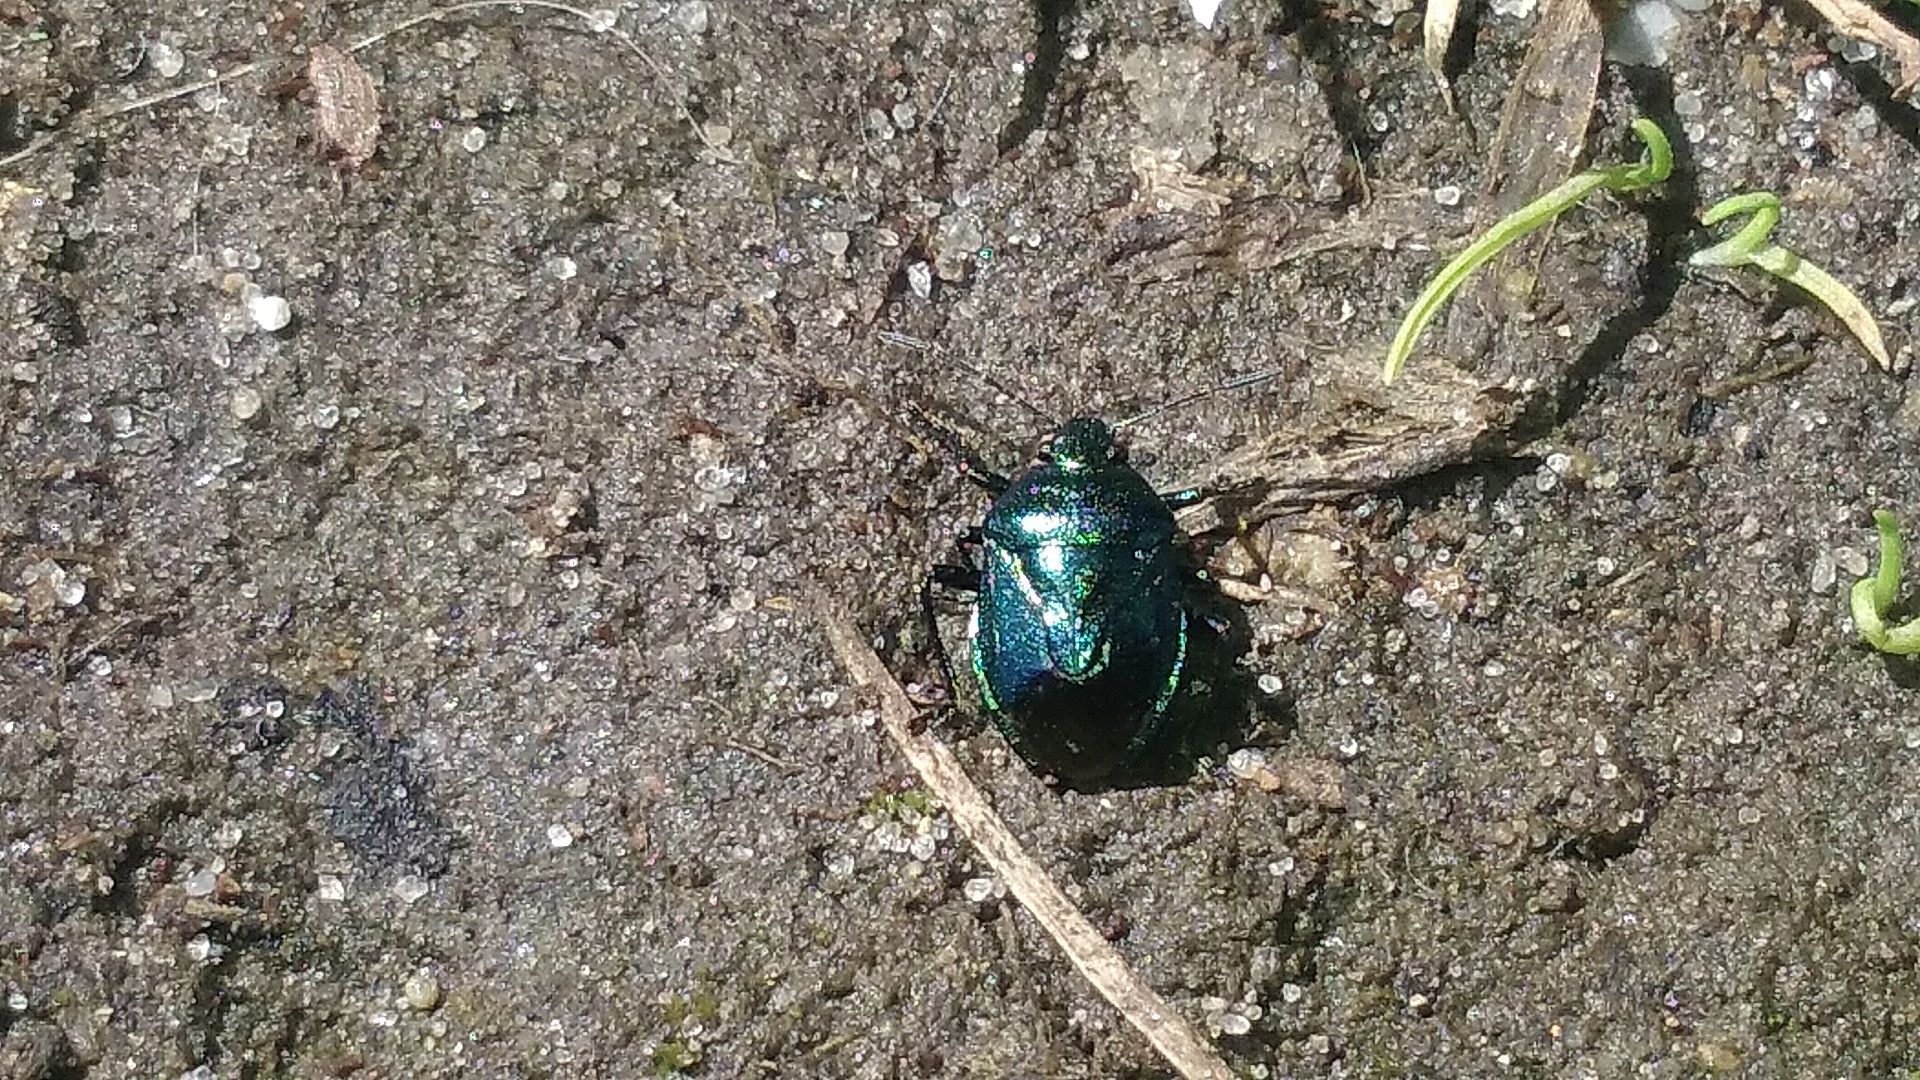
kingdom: Animalia
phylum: Arthropoda
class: Insecta
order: Hemiptera
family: Pentatomidae
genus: Zicrona
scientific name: Zicrona caerulea
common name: Blue shieldbug
